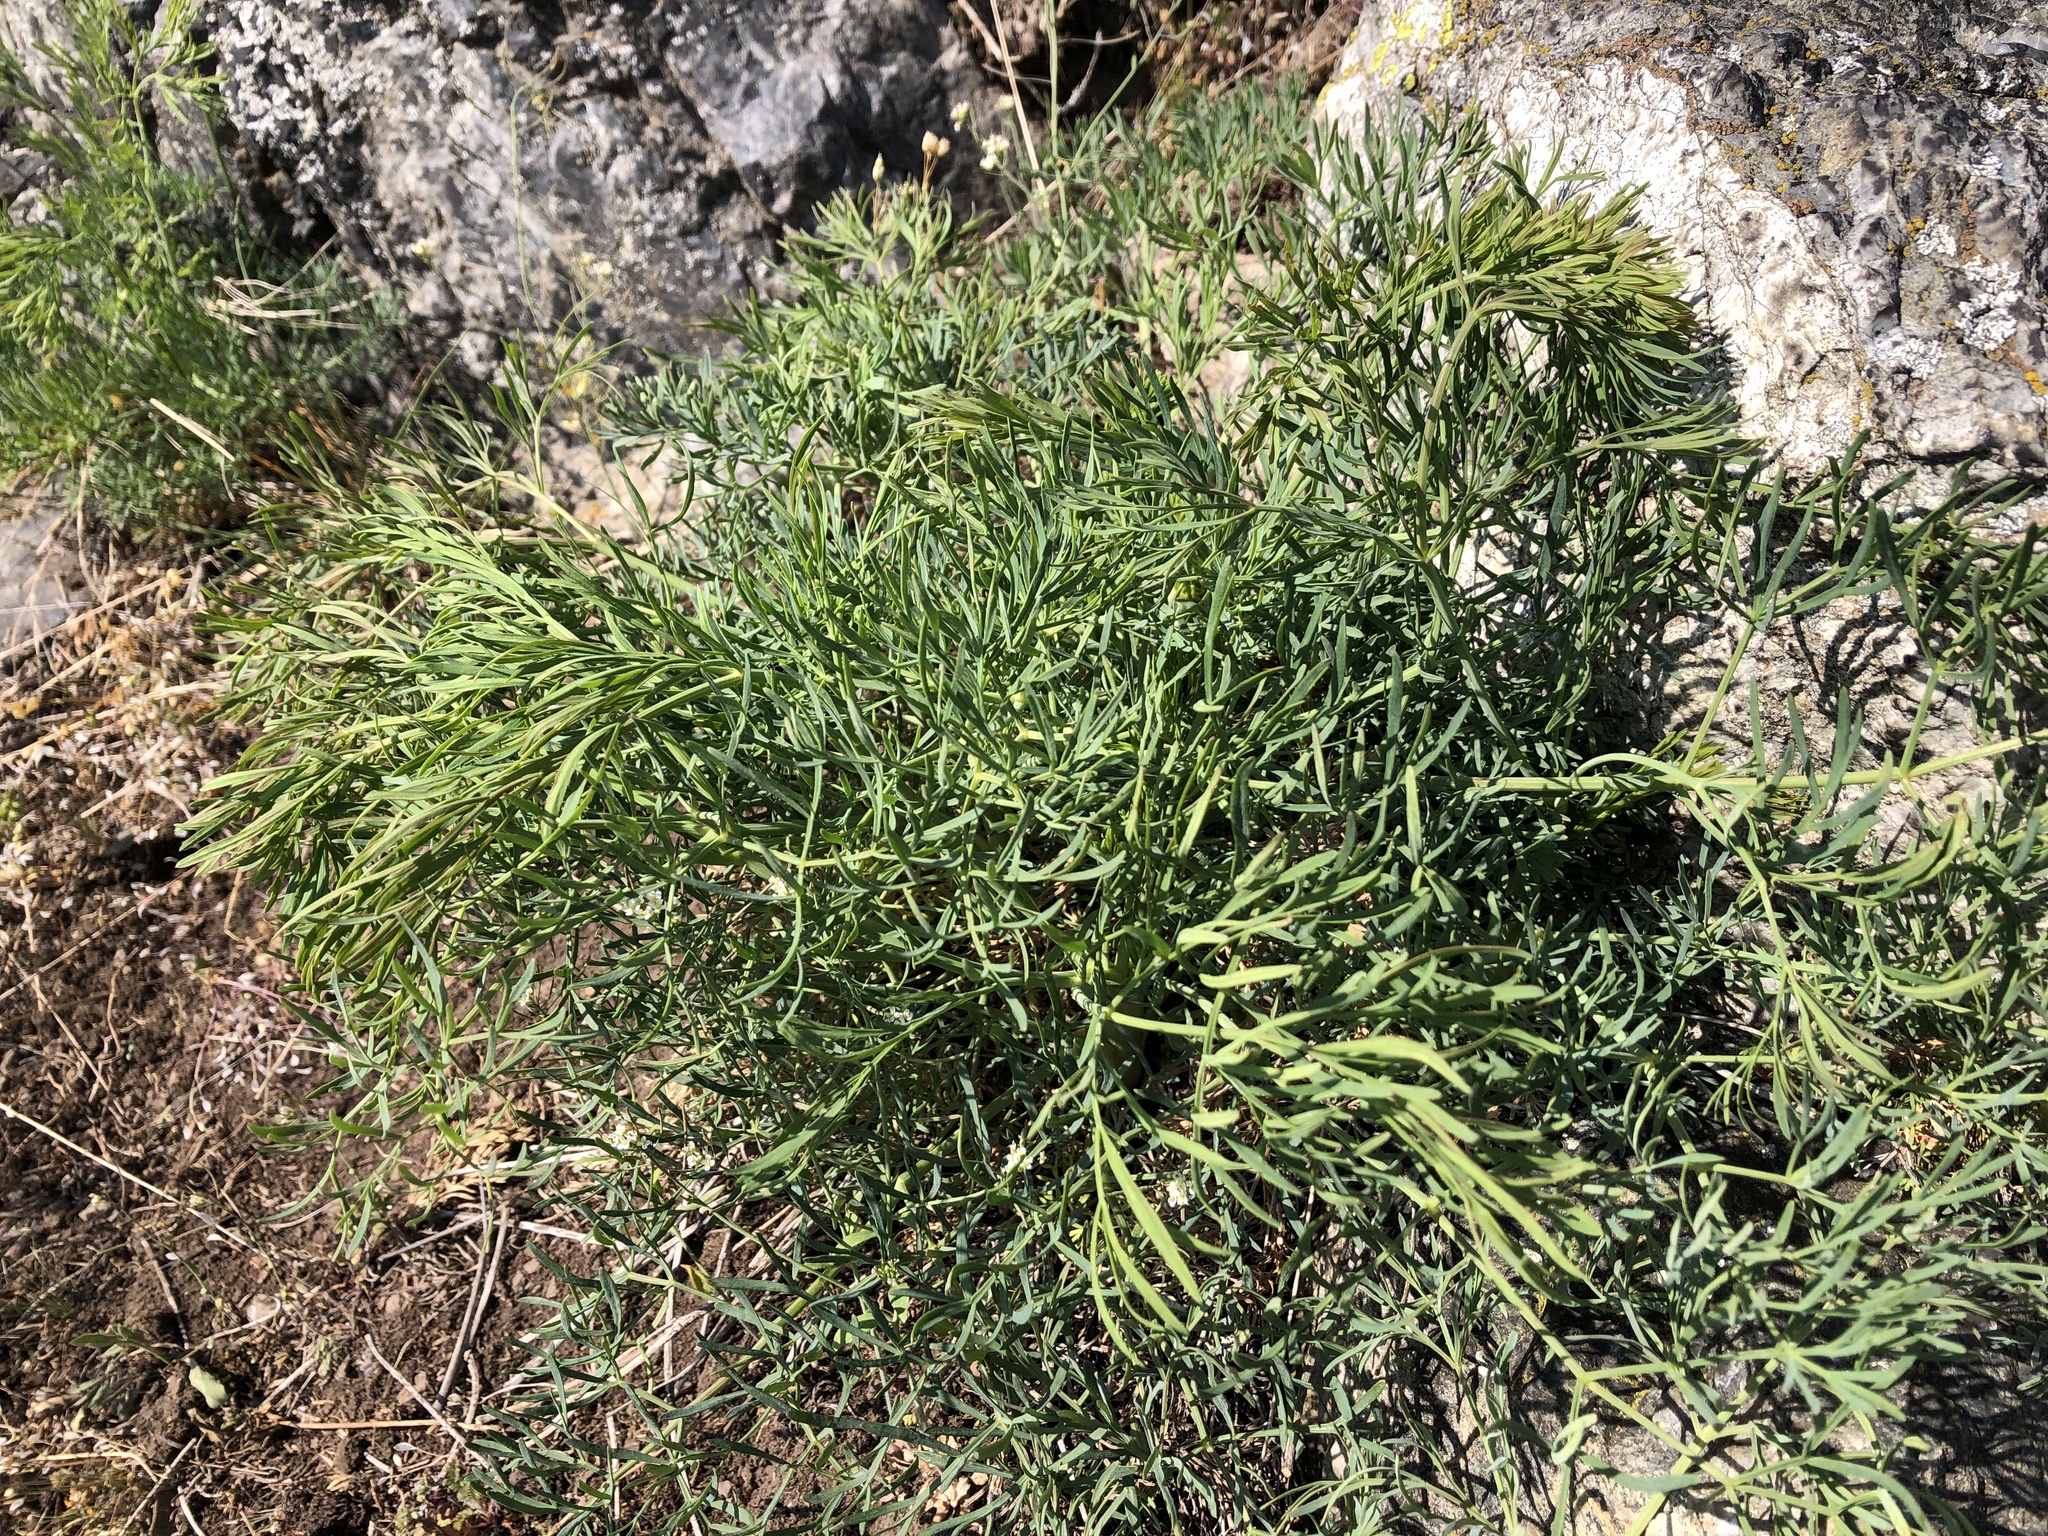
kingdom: Plantae
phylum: Tracheophyta
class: Magnoliopsida
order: Apiales
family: Apiaceae
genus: Seseli
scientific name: Seseli osseum
